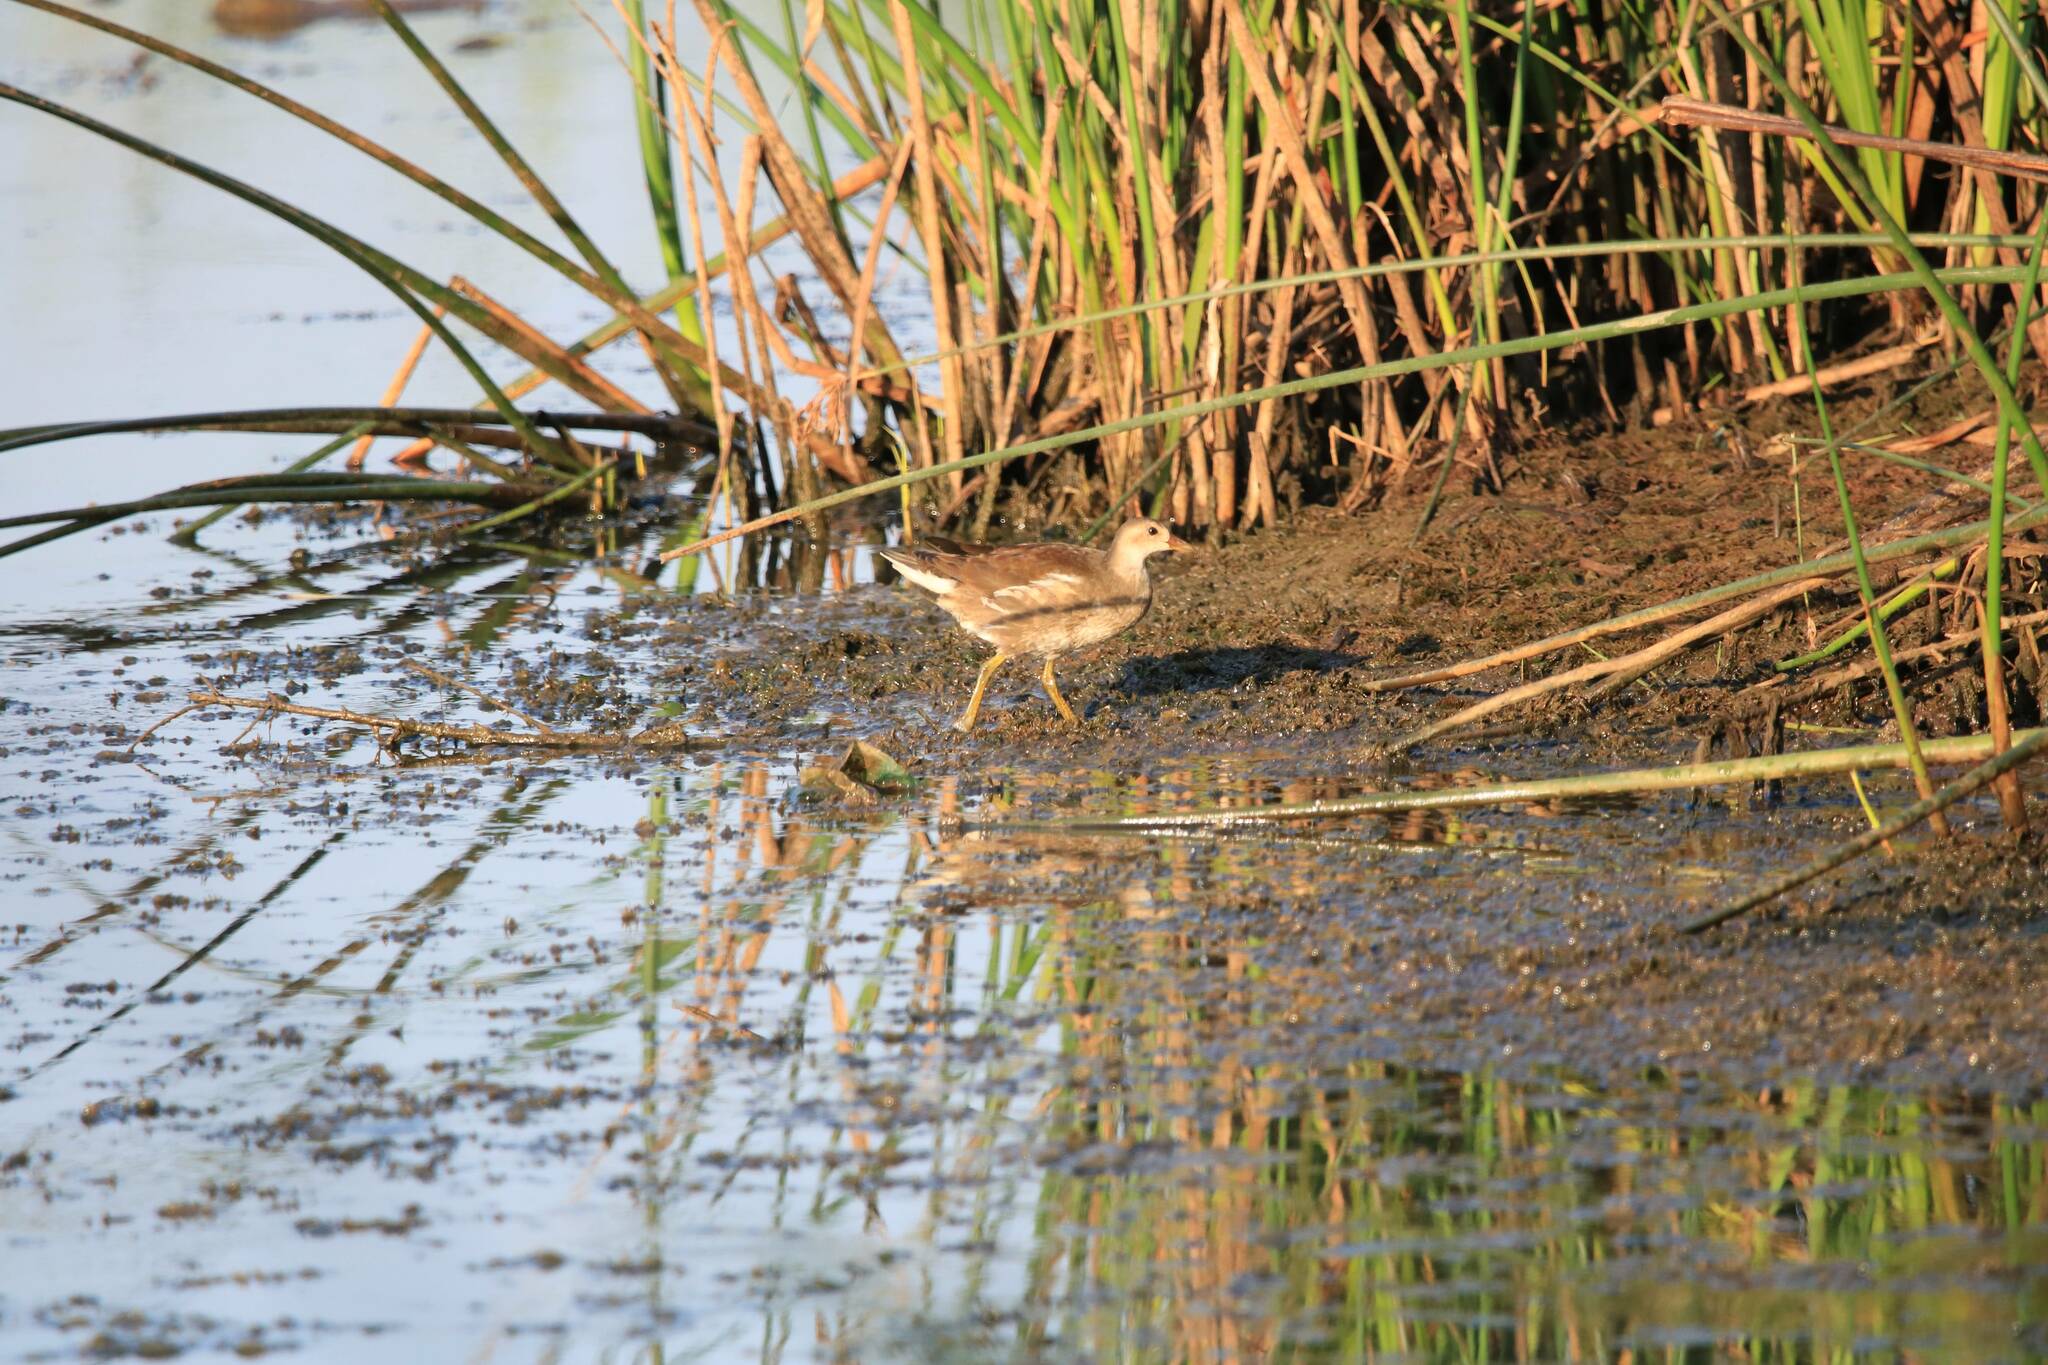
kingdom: Animalia
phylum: Chordata
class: Aves
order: Gruiformes
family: Rallidae
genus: Gallinula
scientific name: Gallinula chloropus
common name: Common moorhen
